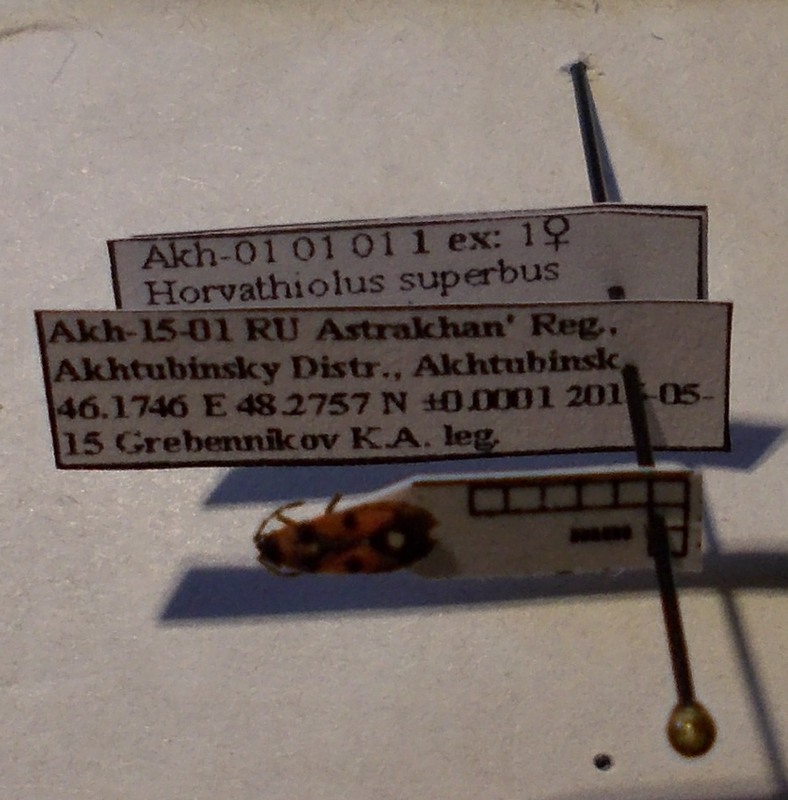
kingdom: Animalia
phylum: Arthropoda
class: Insecta
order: Hemiptera
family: Lygaeidae
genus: Horvathiolus
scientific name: Horvathiolus superbus
